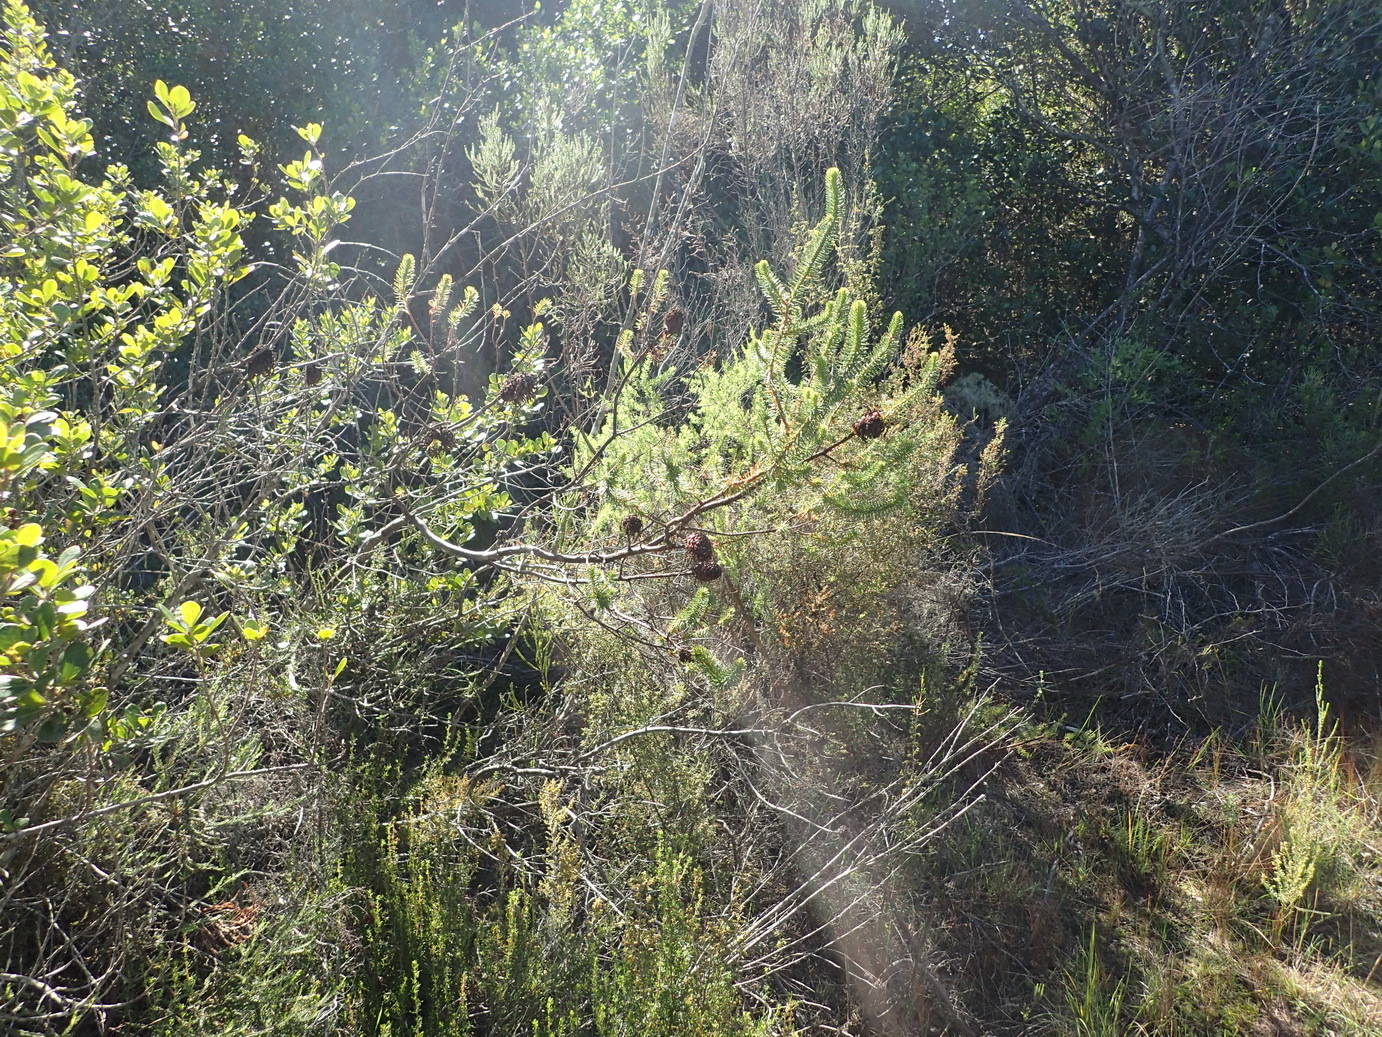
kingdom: Plantae
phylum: Tracheophyta
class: Magnoliopsida
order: Ericales
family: Ericaceae
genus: Erica
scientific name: Erica sessiliflora
